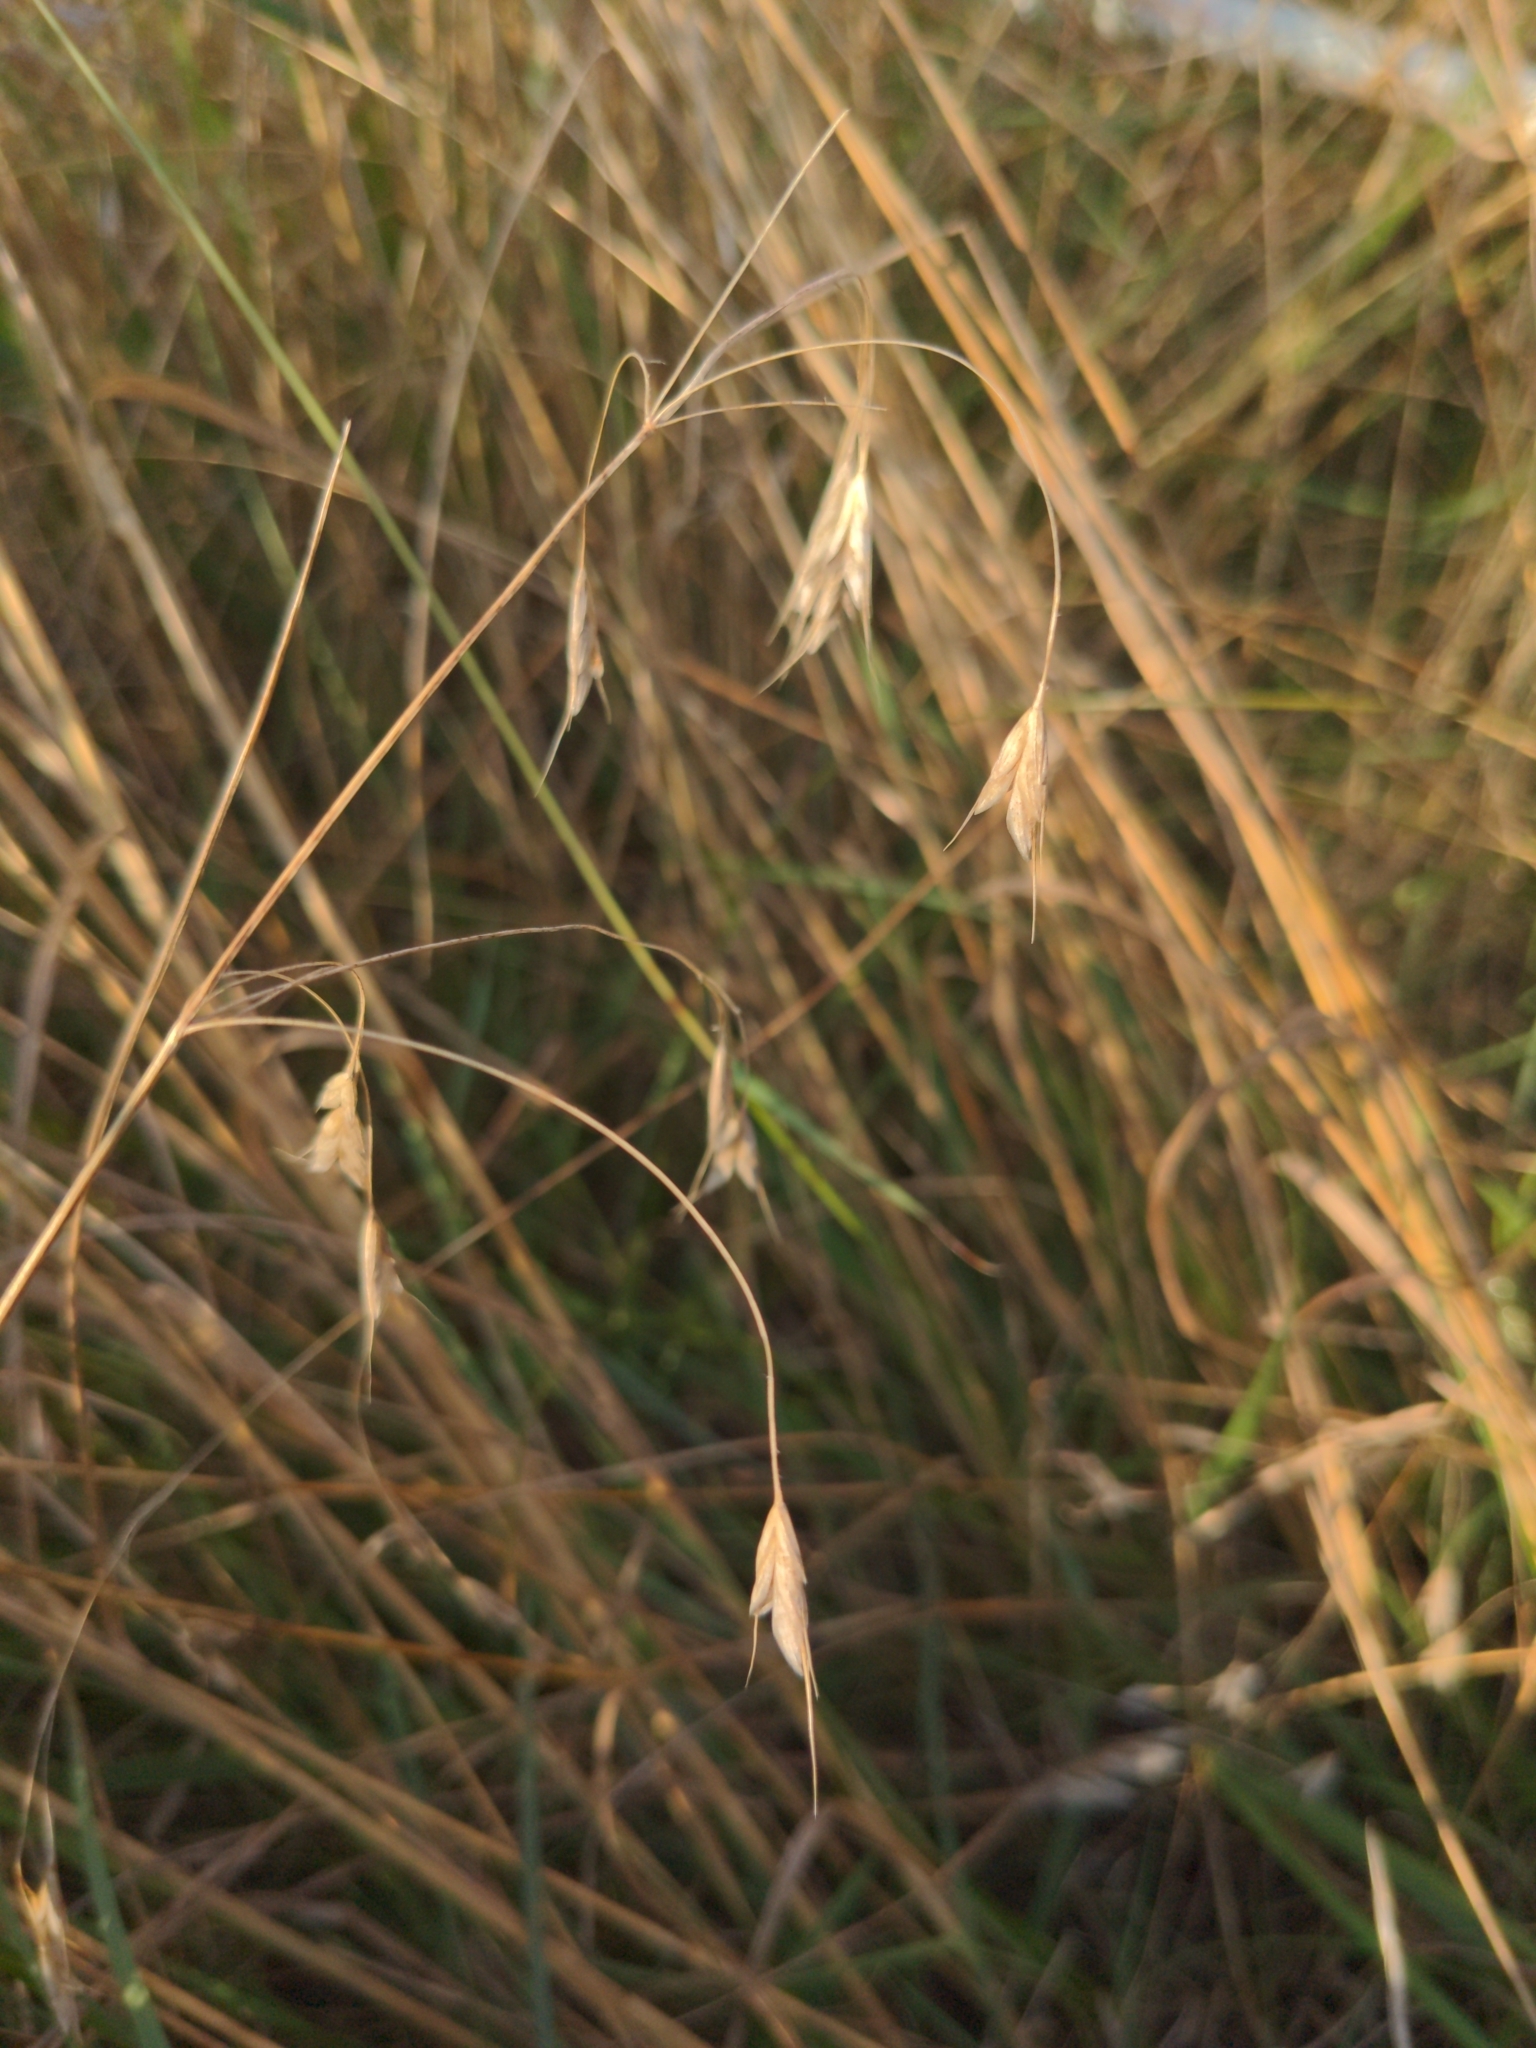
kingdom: Plantae
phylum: Tracheophyta
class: Liliopsida
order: Poales
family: Poaceae
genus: Bromus
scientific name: Bromus japonicus
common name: Japanese brome
